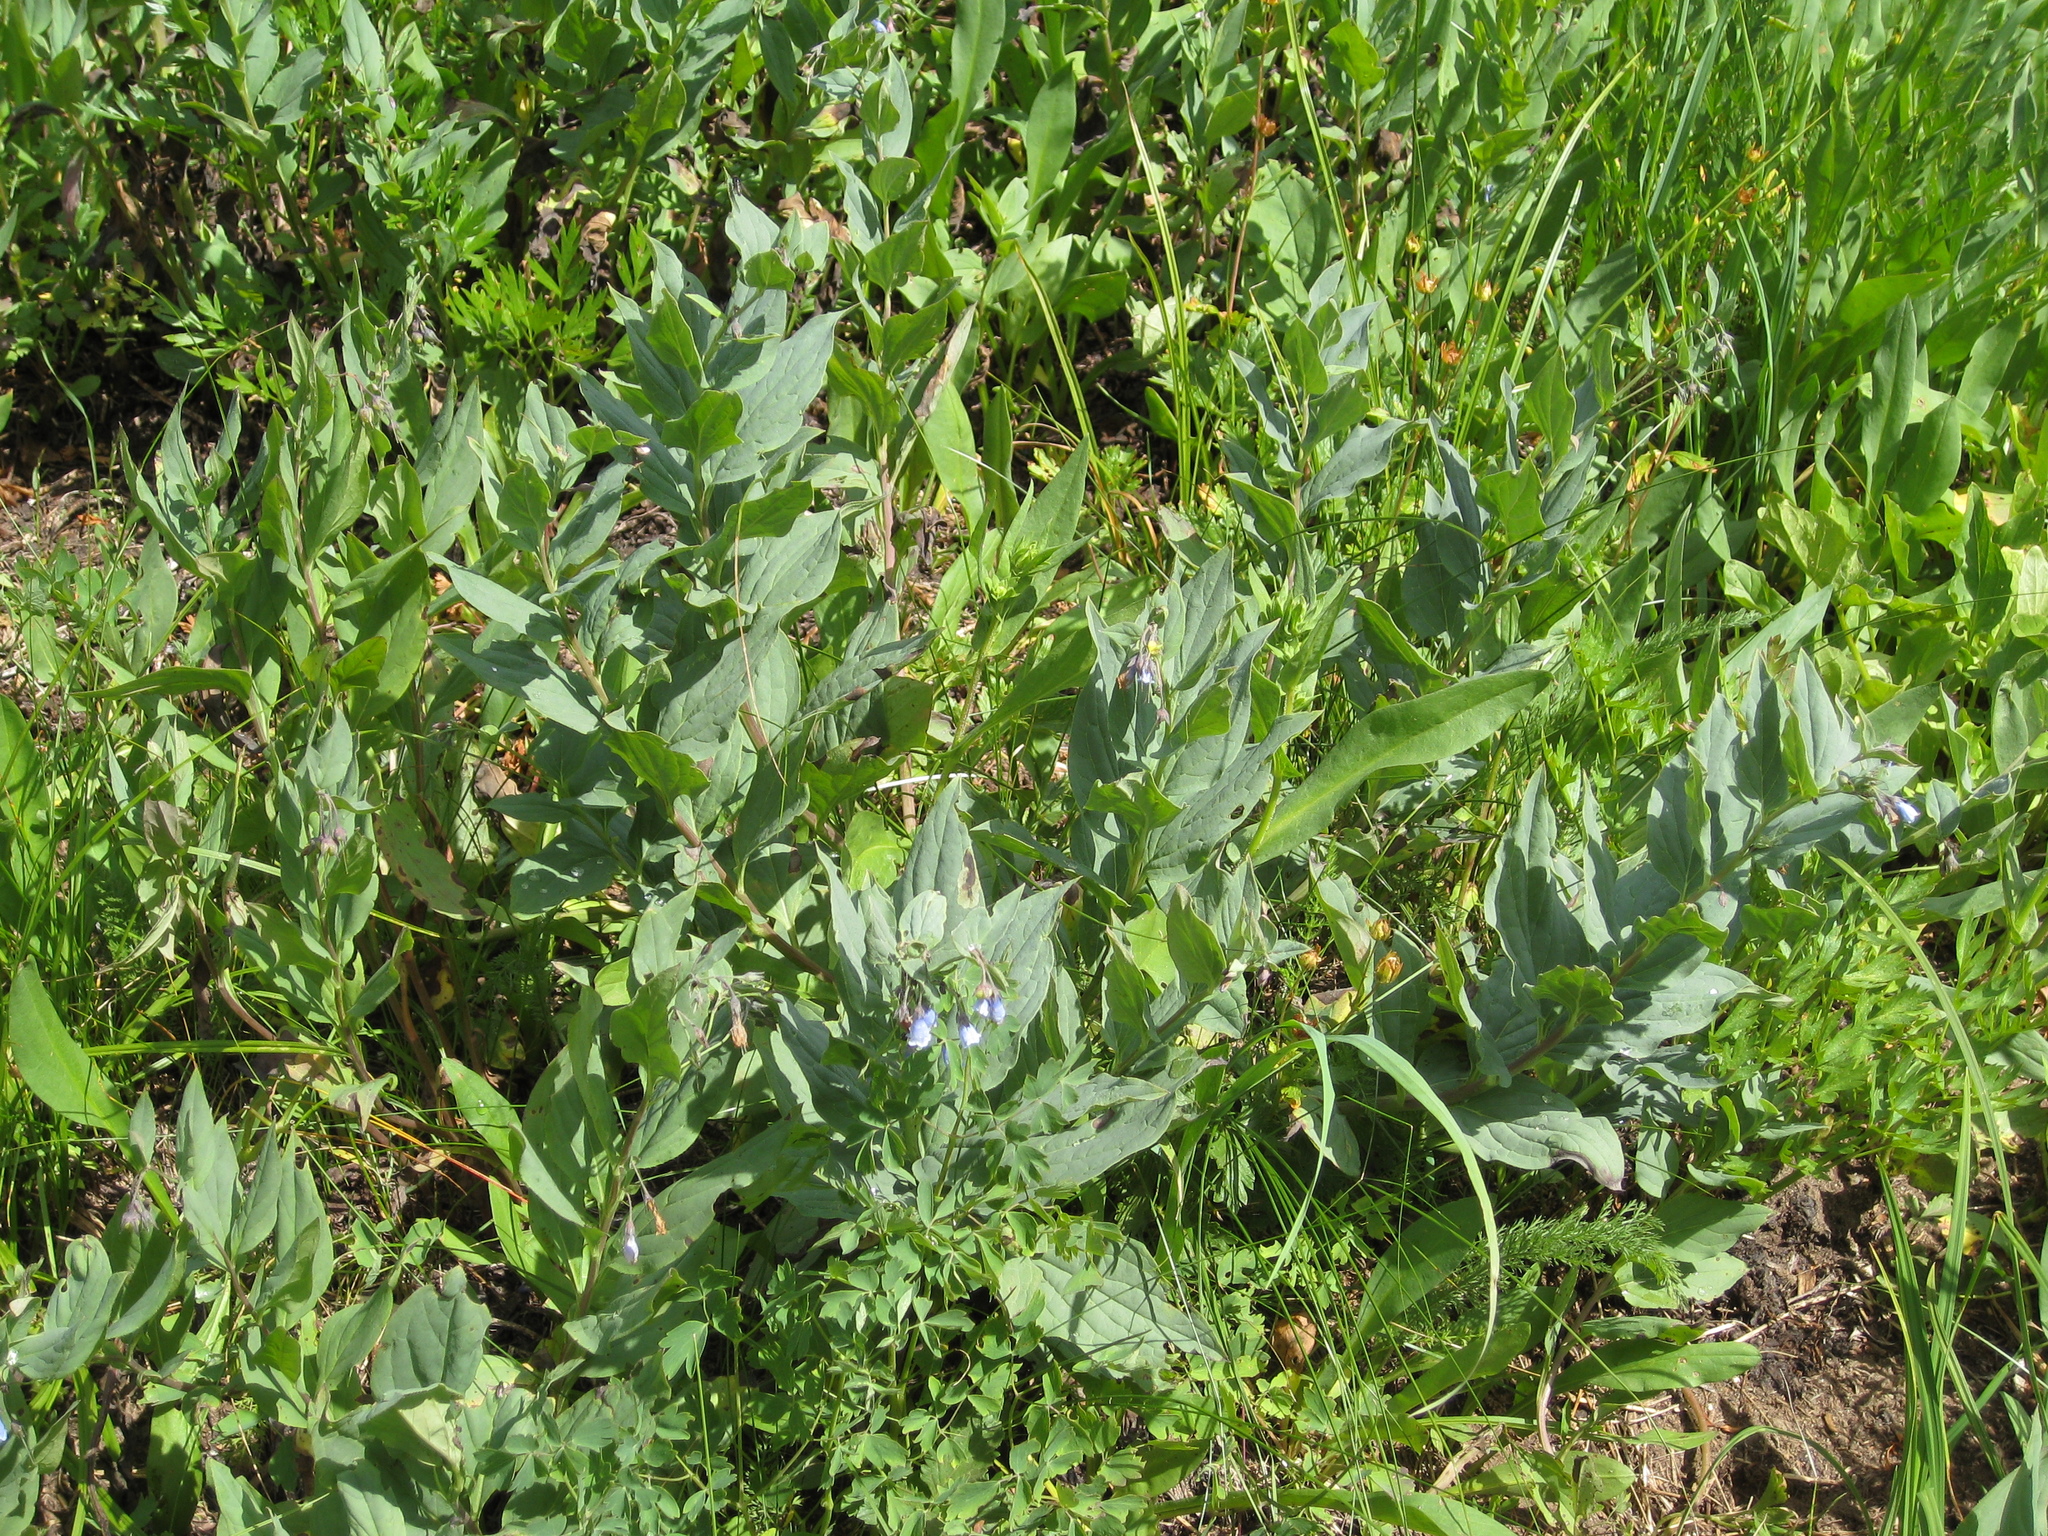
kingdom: Plantae
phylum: Tracheophyta
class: Magnoliopsida
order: Boraginales
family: Boraginaceae
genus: Mertensia
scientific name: Mertensia ciliata
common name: Tall chiming-bells
